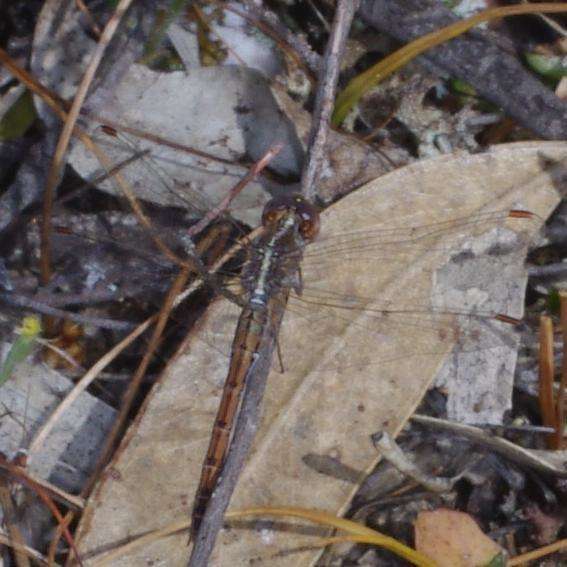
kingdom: Animalia
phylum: Arthropoda
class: Insecta
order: Odonata
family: Libellulidae
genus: Diplacodes
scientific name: Diplacodes bipunctata
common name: Red percher dragonfly
